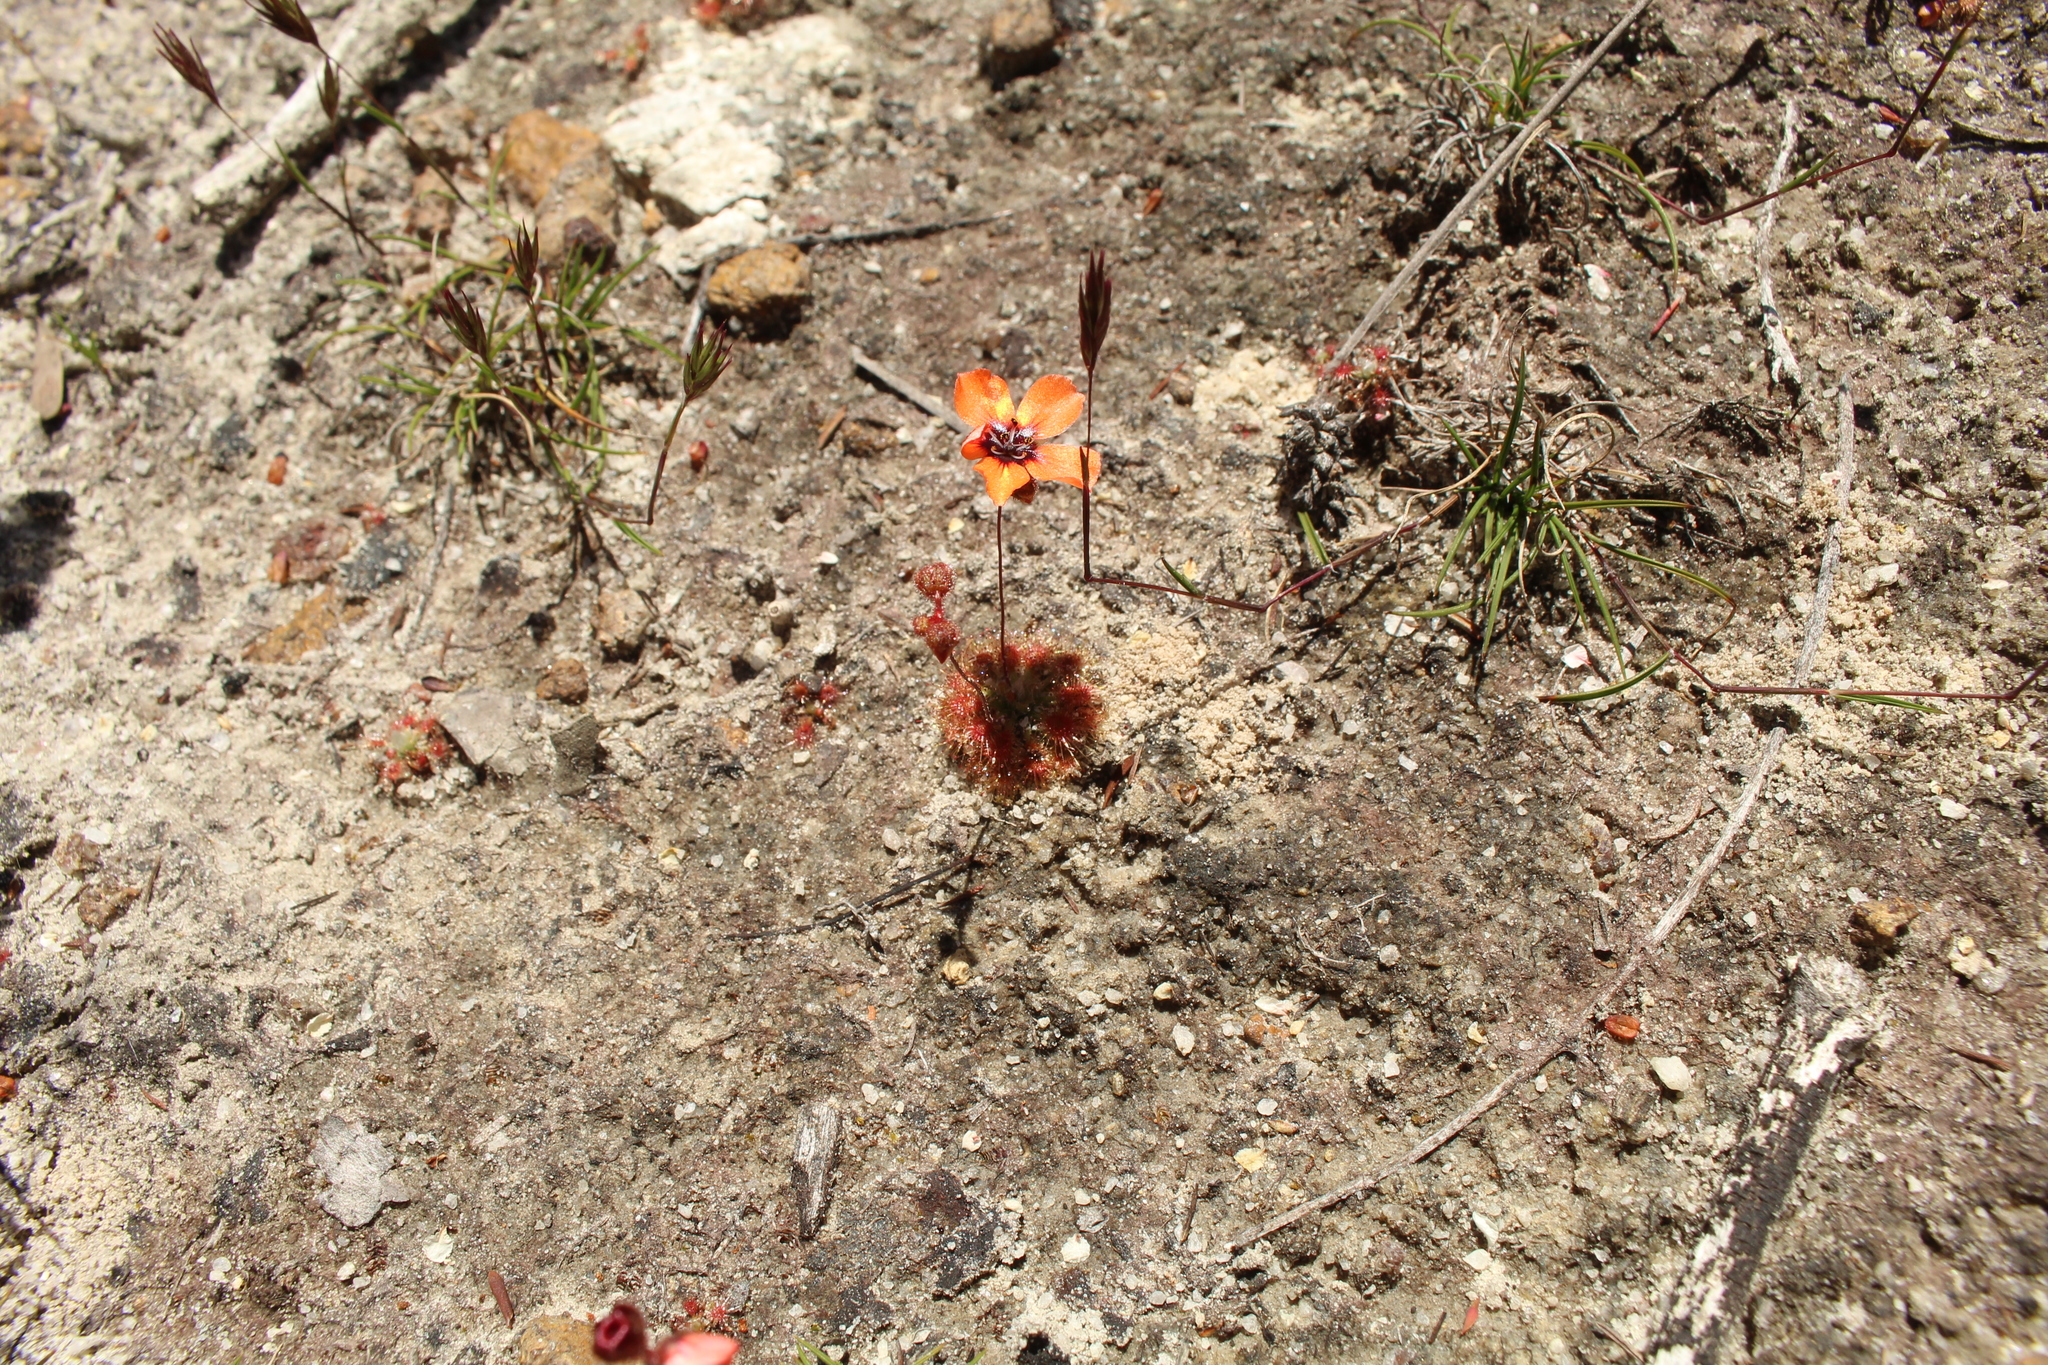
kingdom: Plantae
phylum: Tracheophyta
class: Magnoliopsida
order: Caryophyllales
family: Droseraceae
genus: Drosera
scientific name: Drosera platystigma
